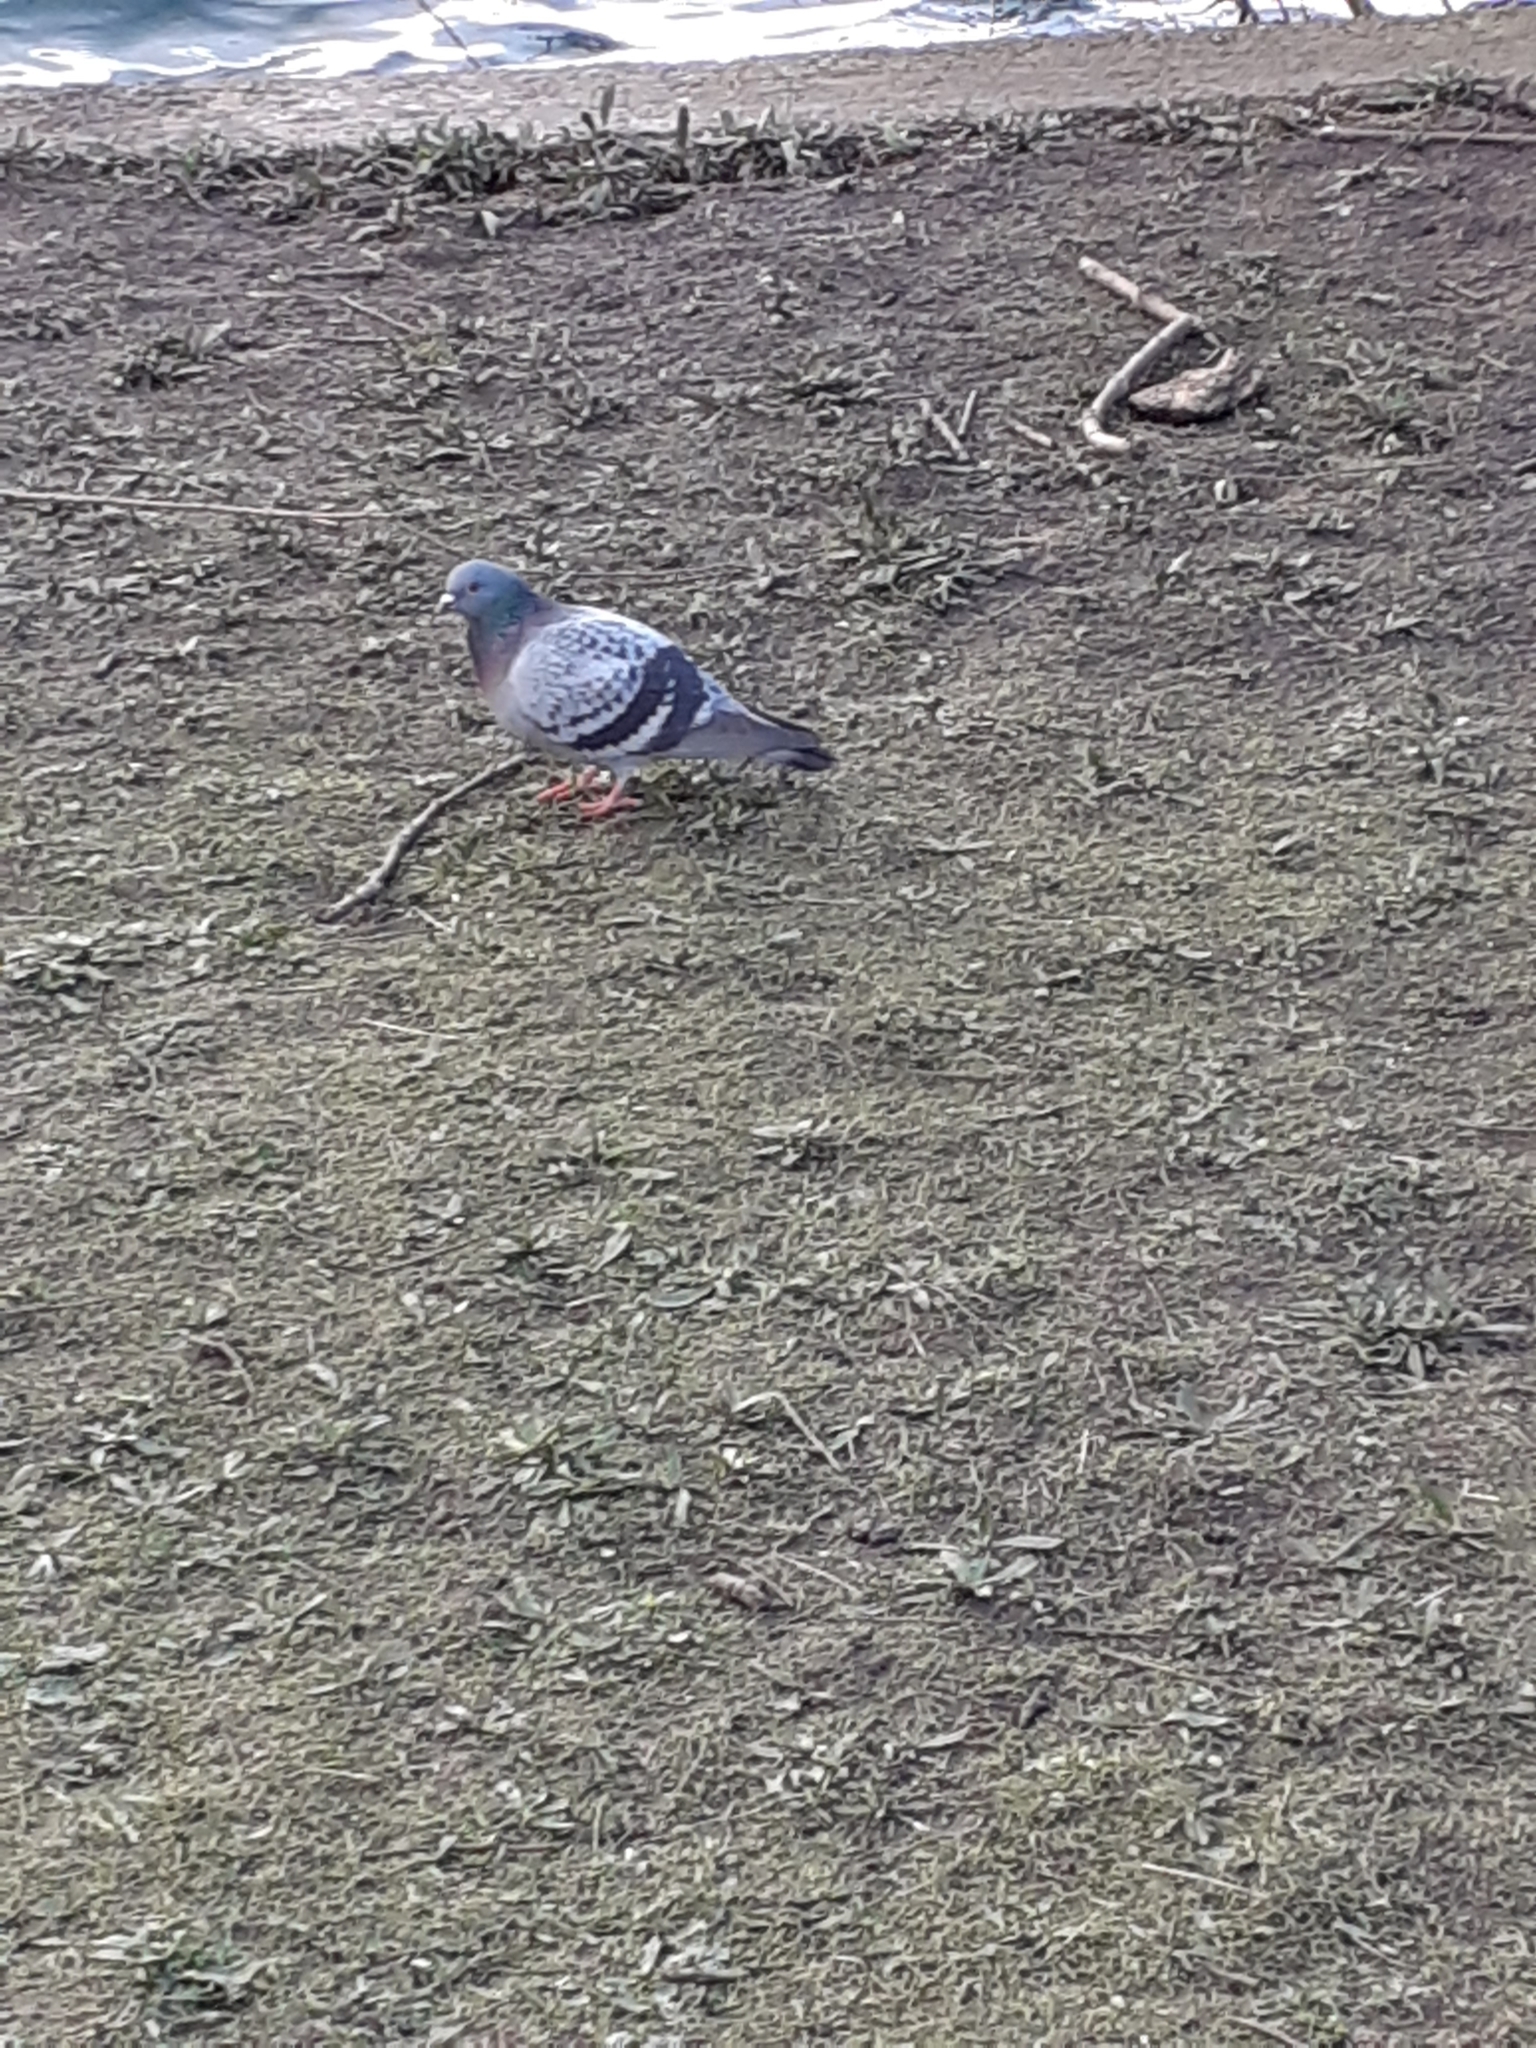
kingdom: Animalia
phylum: Chordata
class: Aves
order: Columbiformes
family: Columbidae
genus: Columba
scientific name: Columba livia
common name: Rock pigeon
